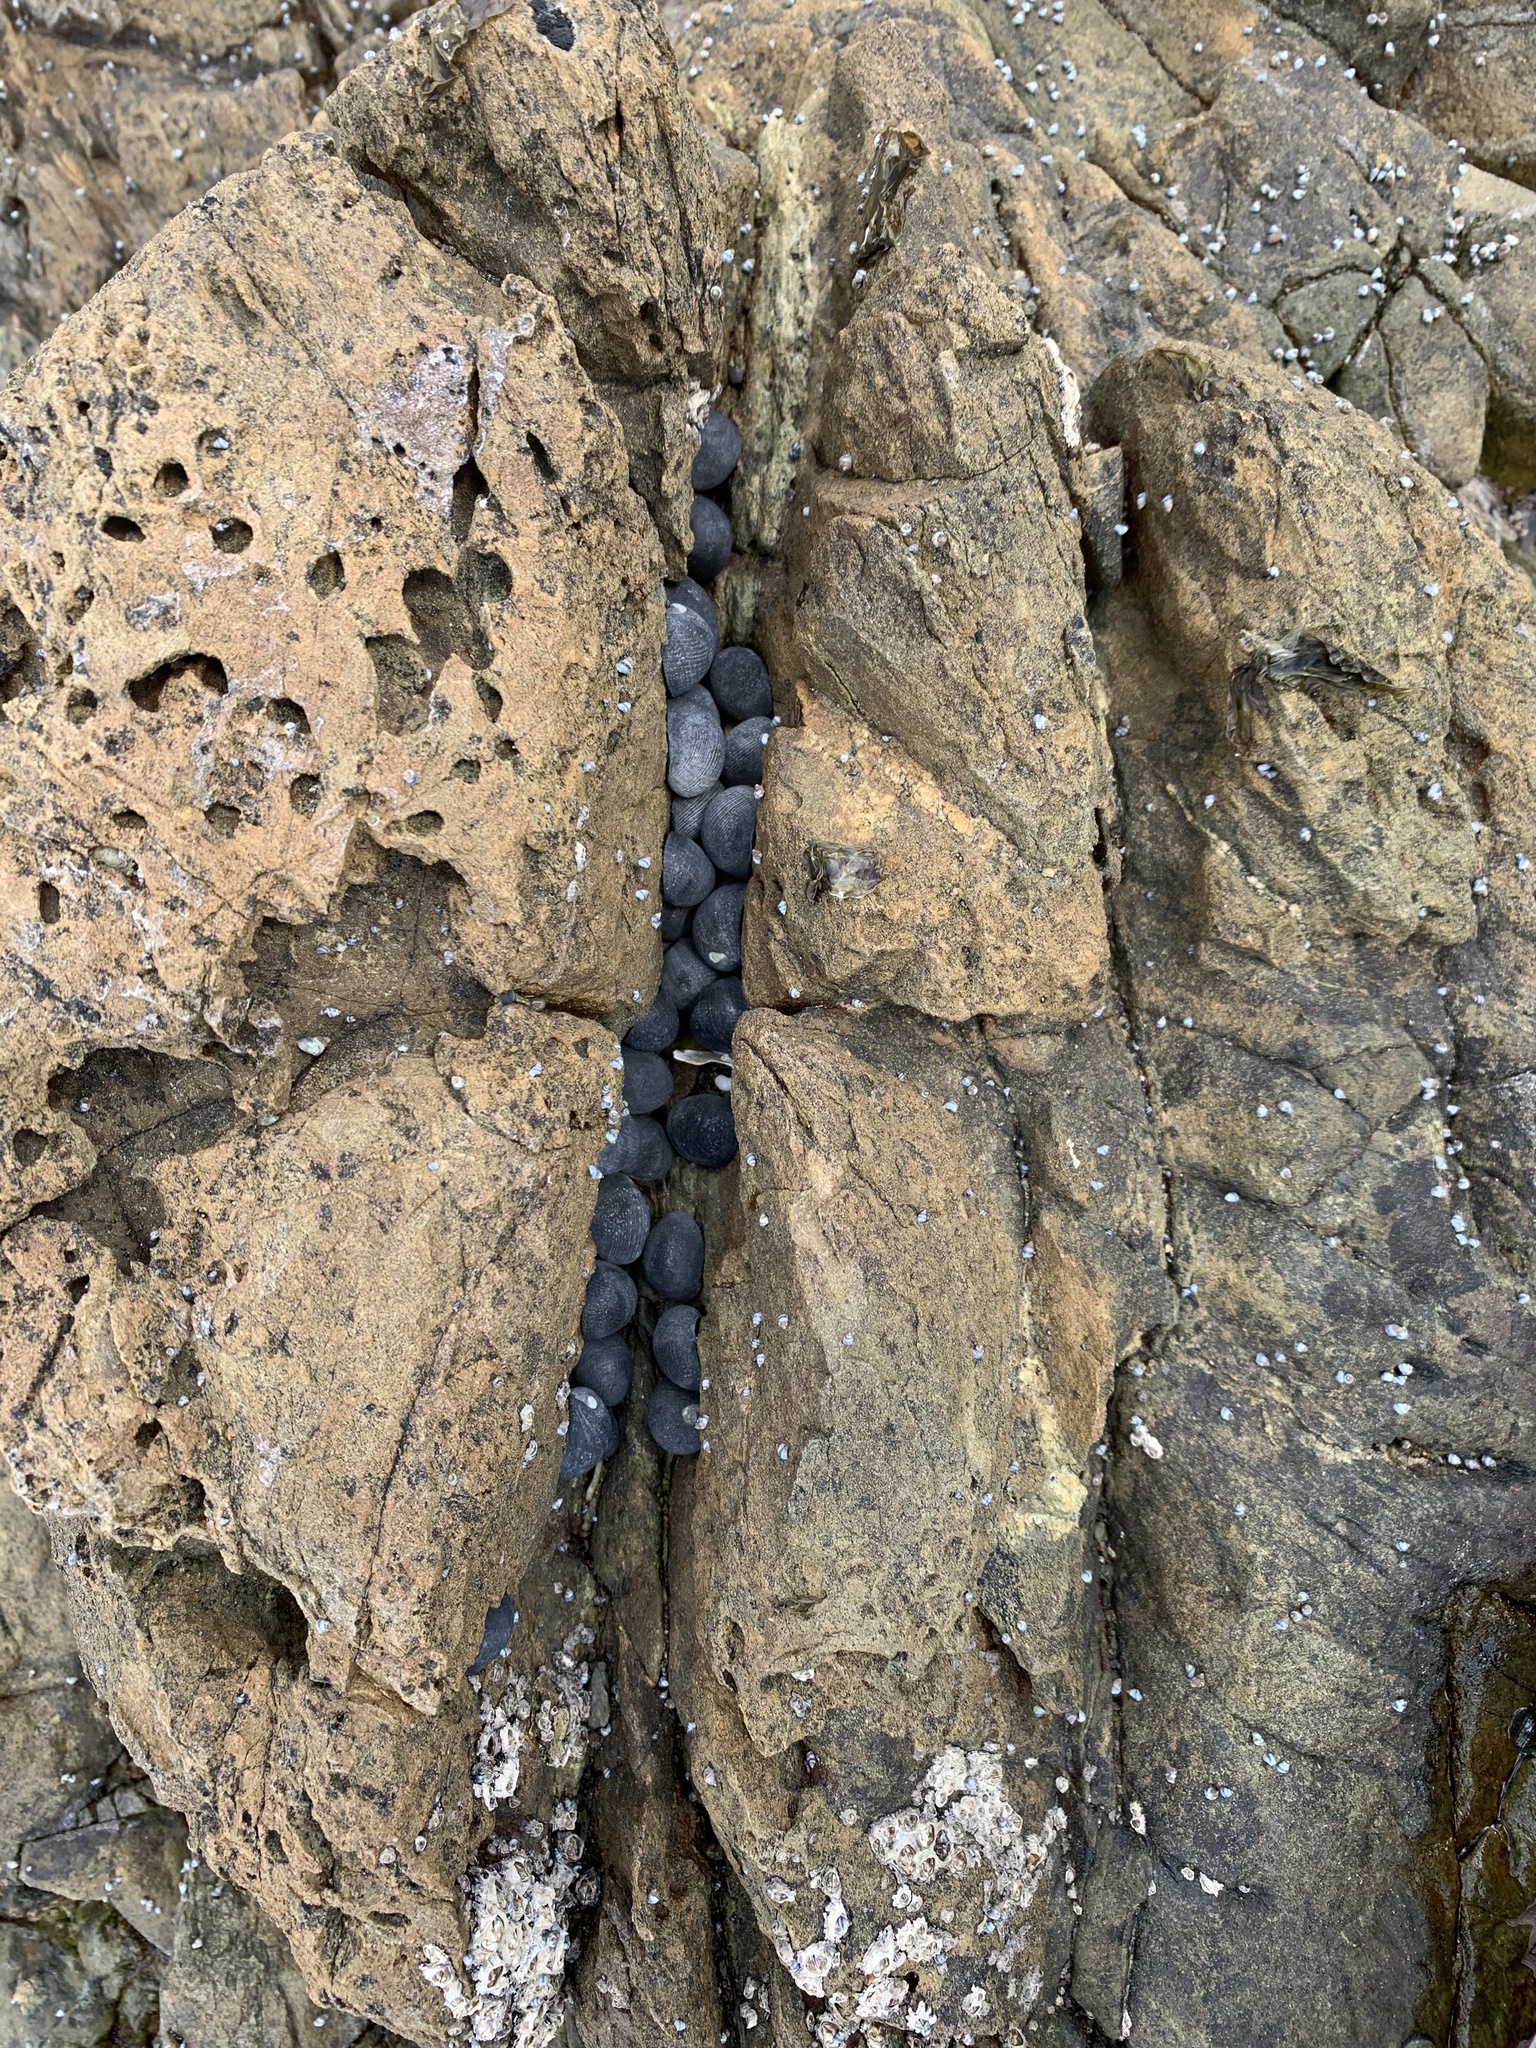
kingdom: Animalia
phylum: Mollusca
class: Gastropoda
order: Cycloneritida
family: Neritidae
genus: Nerita
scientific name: Nerita melanotragus
